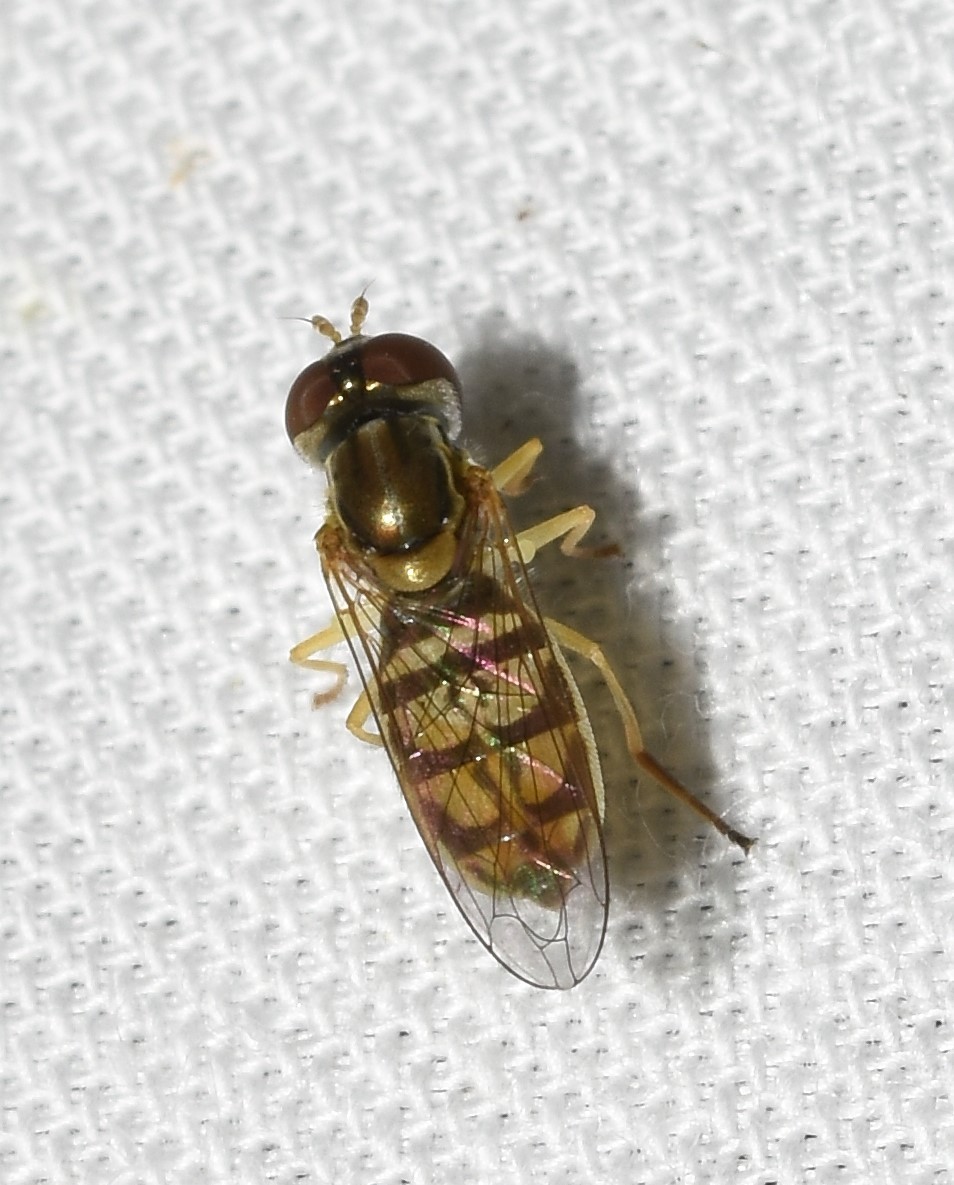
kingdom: Animalia
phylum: Arthropoda
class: Insecta
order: Diptera
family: Syrphidae
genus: Toxomerus
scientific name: Toxomerus marginatus
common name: Syrphid fly
